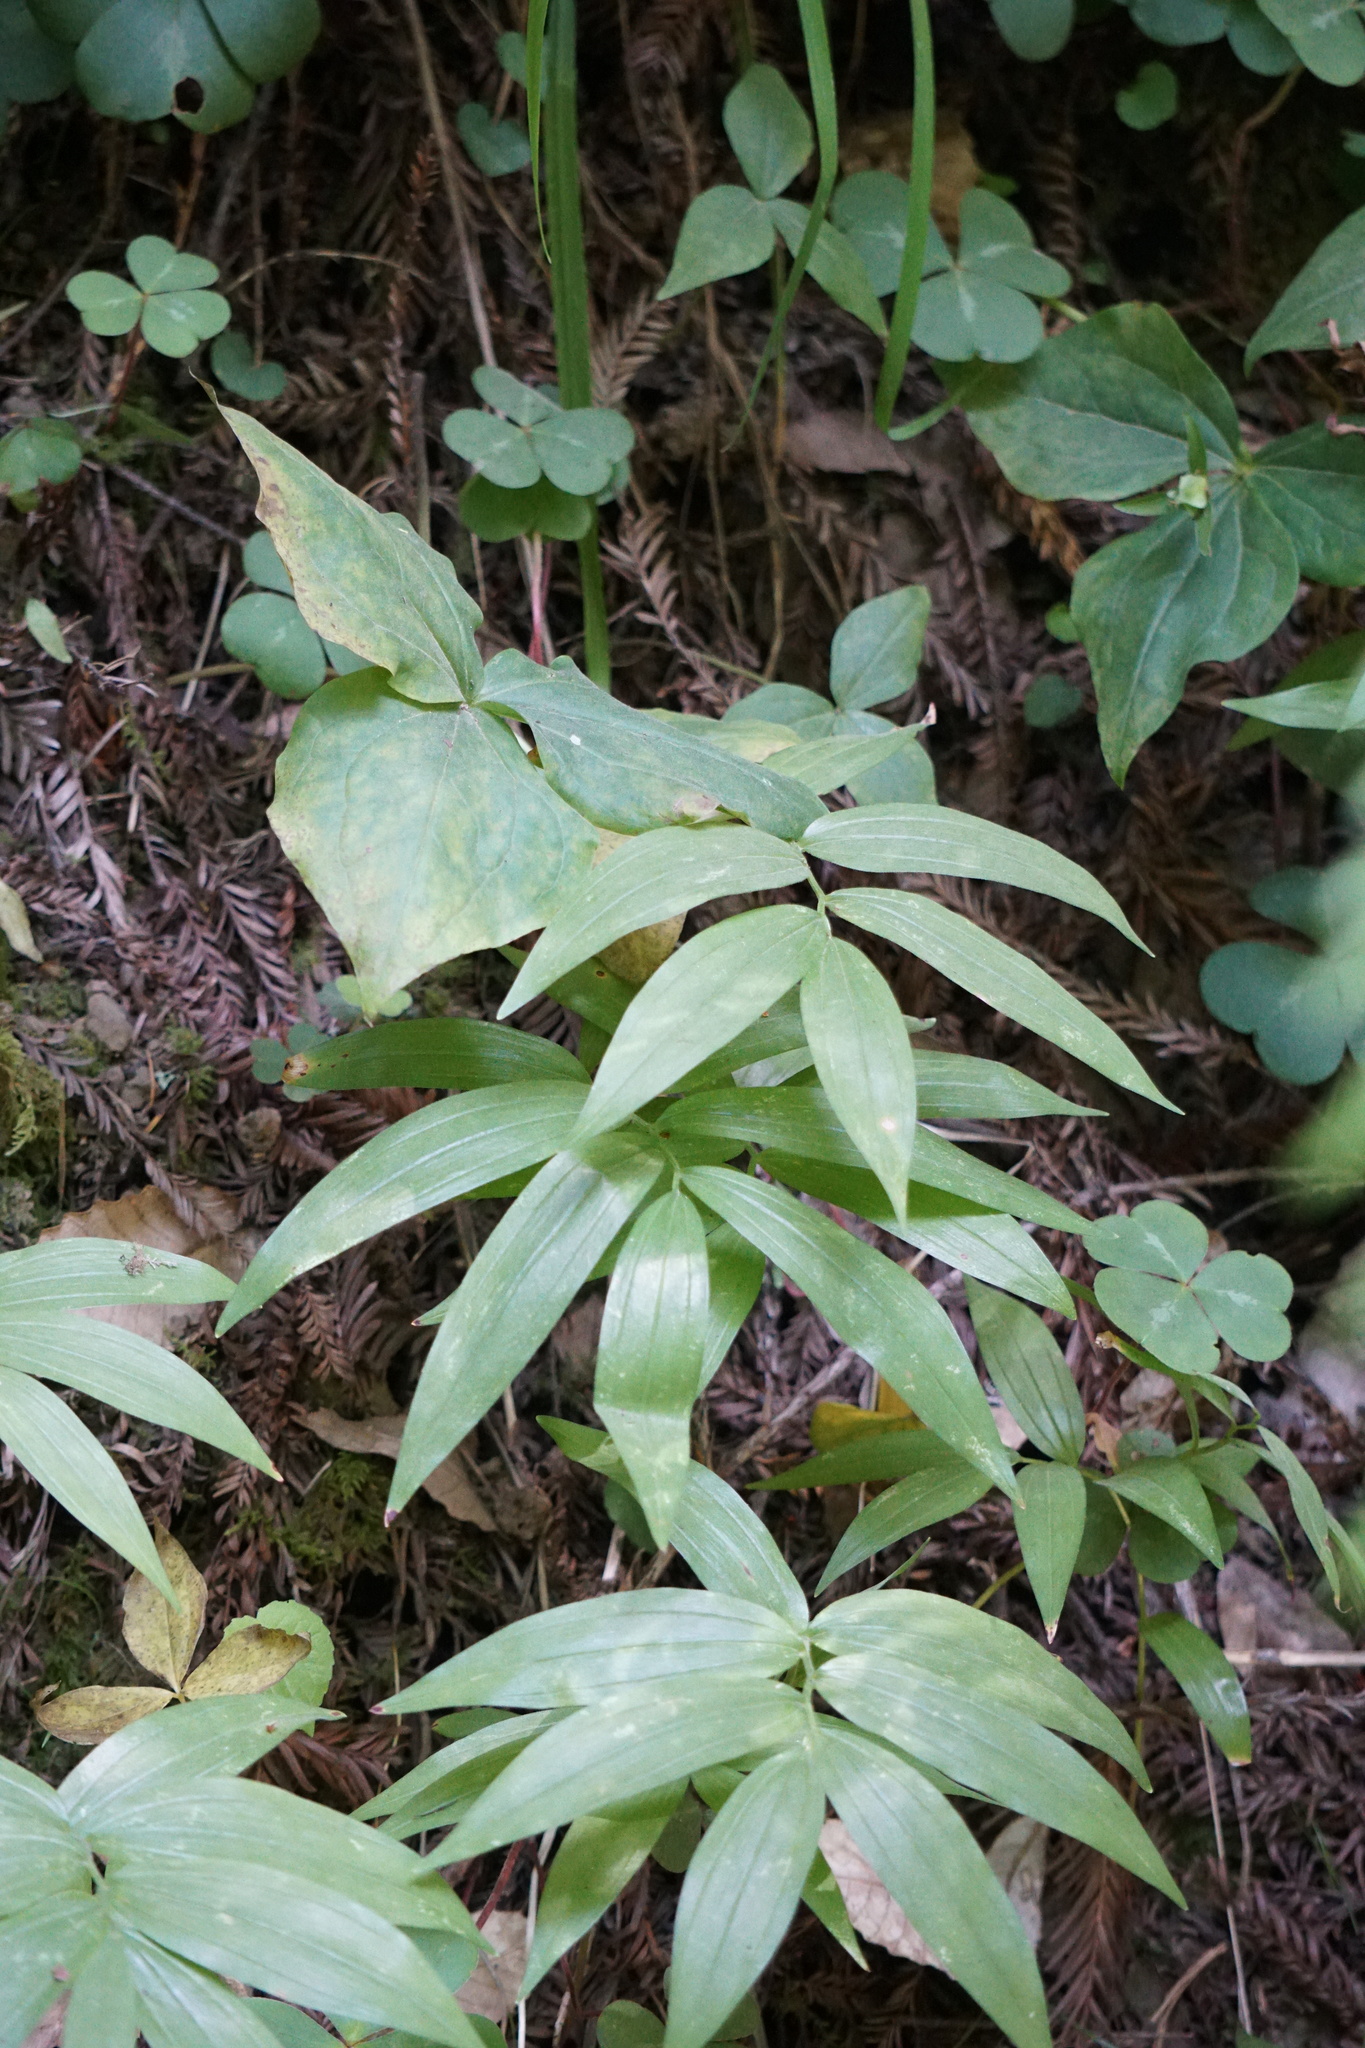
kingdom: Plantae
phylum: Tracheophyta
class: Liliopsida
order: Asparagales
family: Asparagaceae
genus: Maianthemum
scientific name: Maianthemum stellatum
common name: Little false solomon's seal
